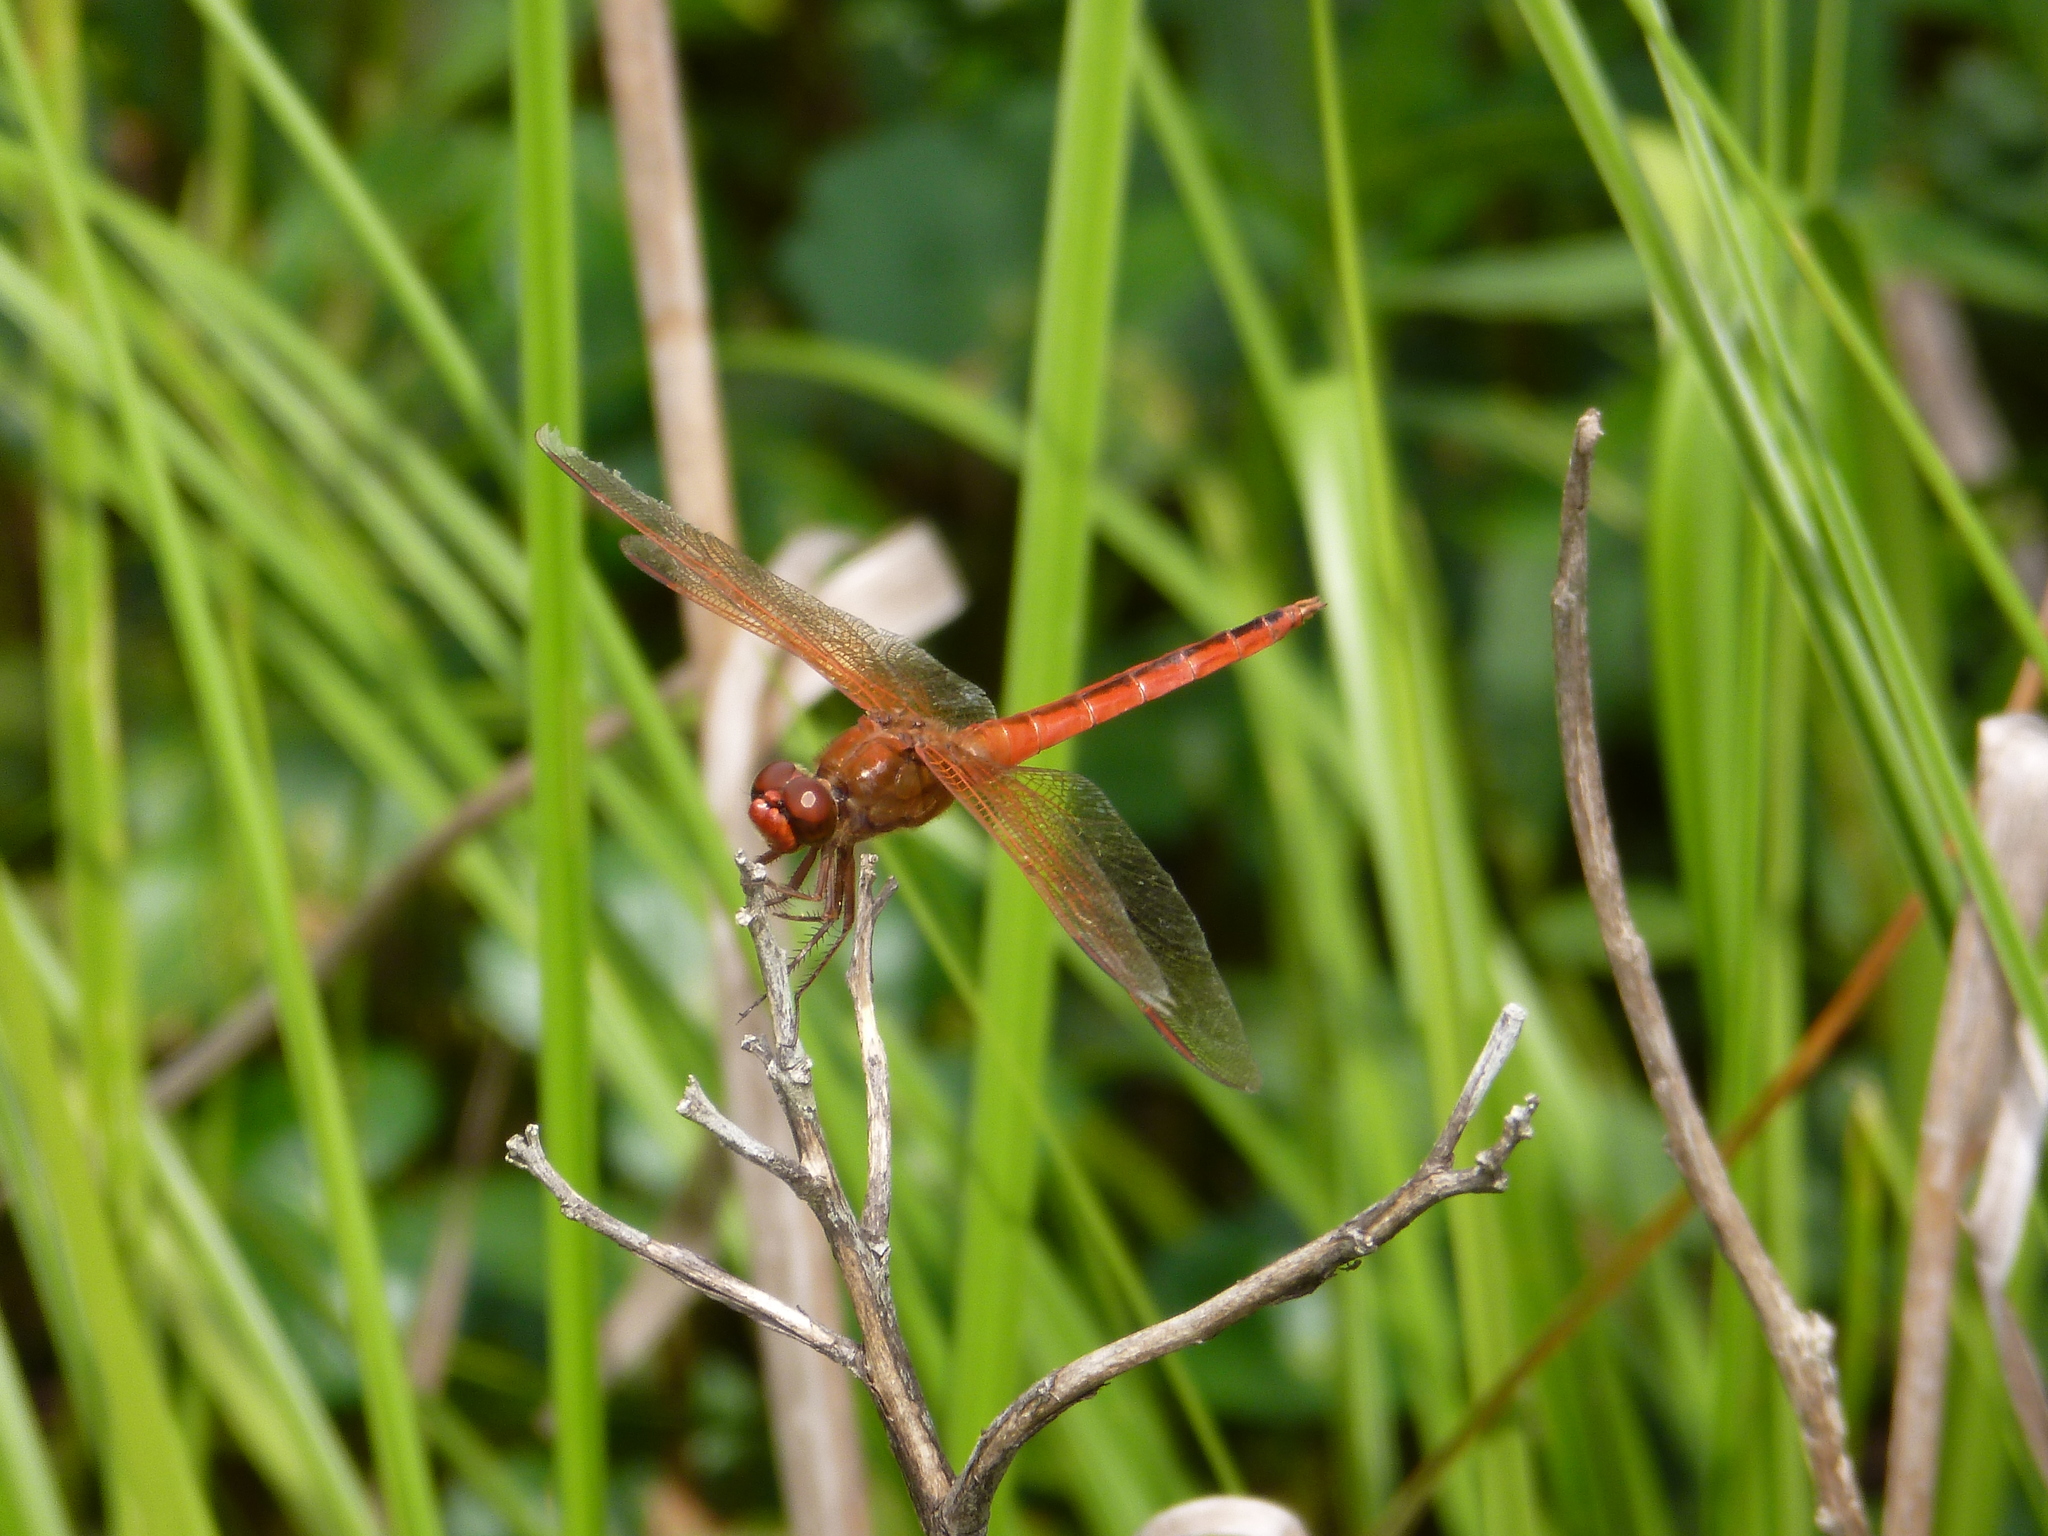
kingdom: Animalia
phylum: Arthropoda
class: Insecta
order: Odonata
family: Libellulidae
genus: Libellula
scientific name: Libellula needhami
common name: Needham's skimmer
